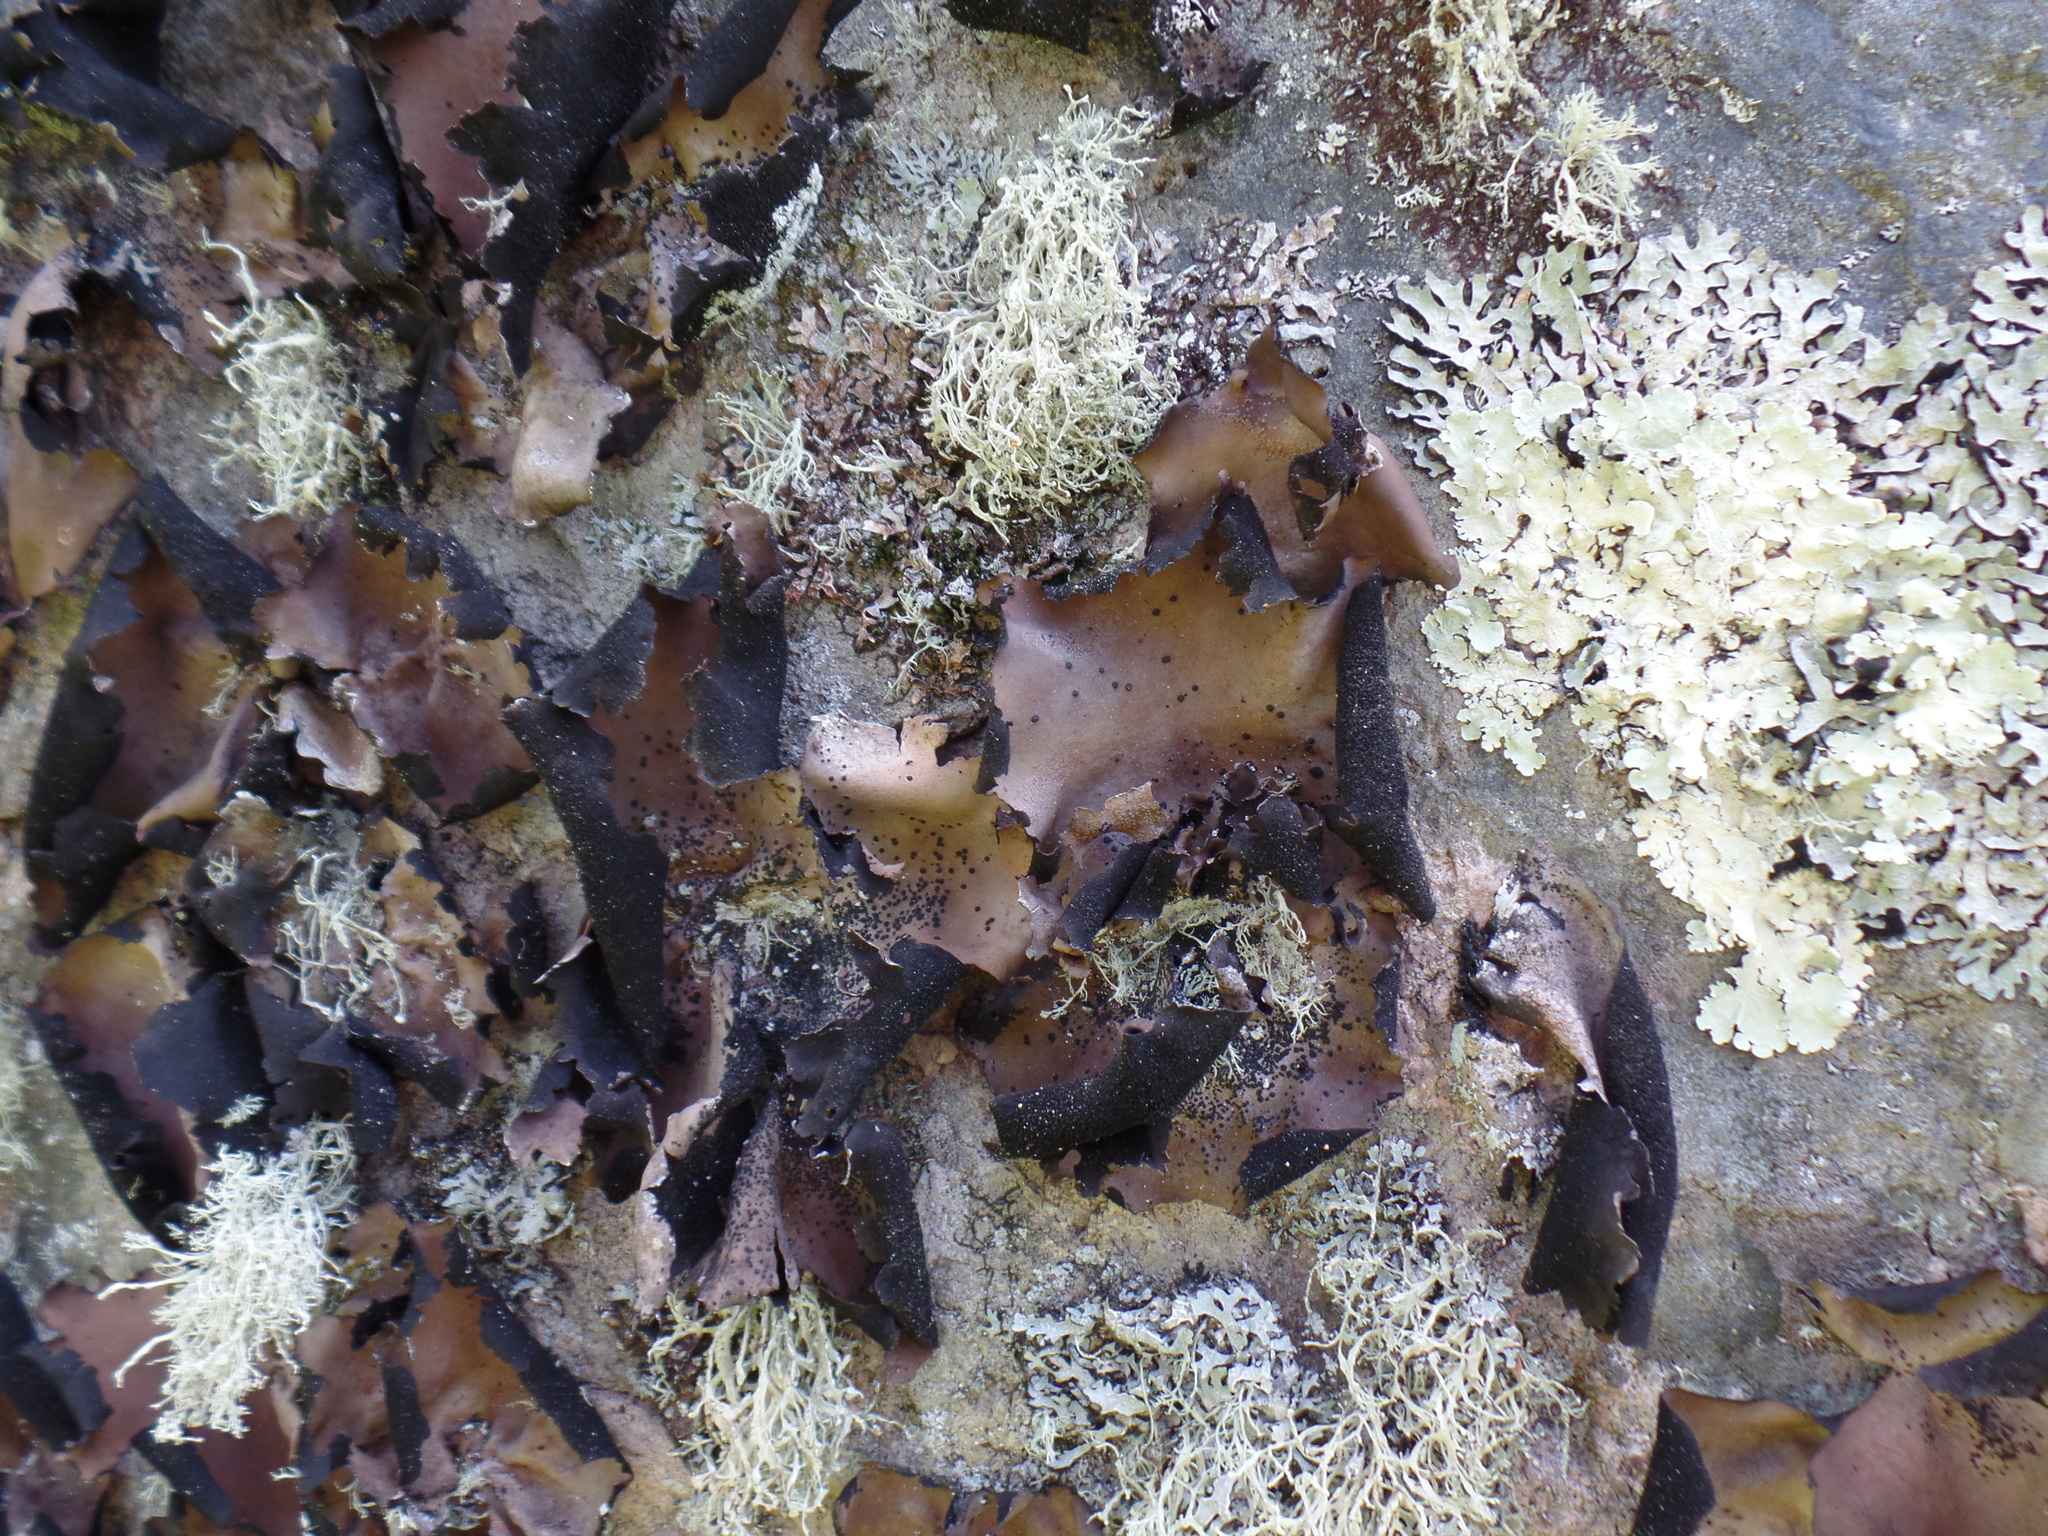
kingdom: Fungi
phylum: Ascomycota
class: Lecanoromycetes
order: Umbilicariales
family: Umbilicariaceae
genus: Umbilicaria
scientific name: Umbilicaria mammulata
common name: Smooth rock tripe
